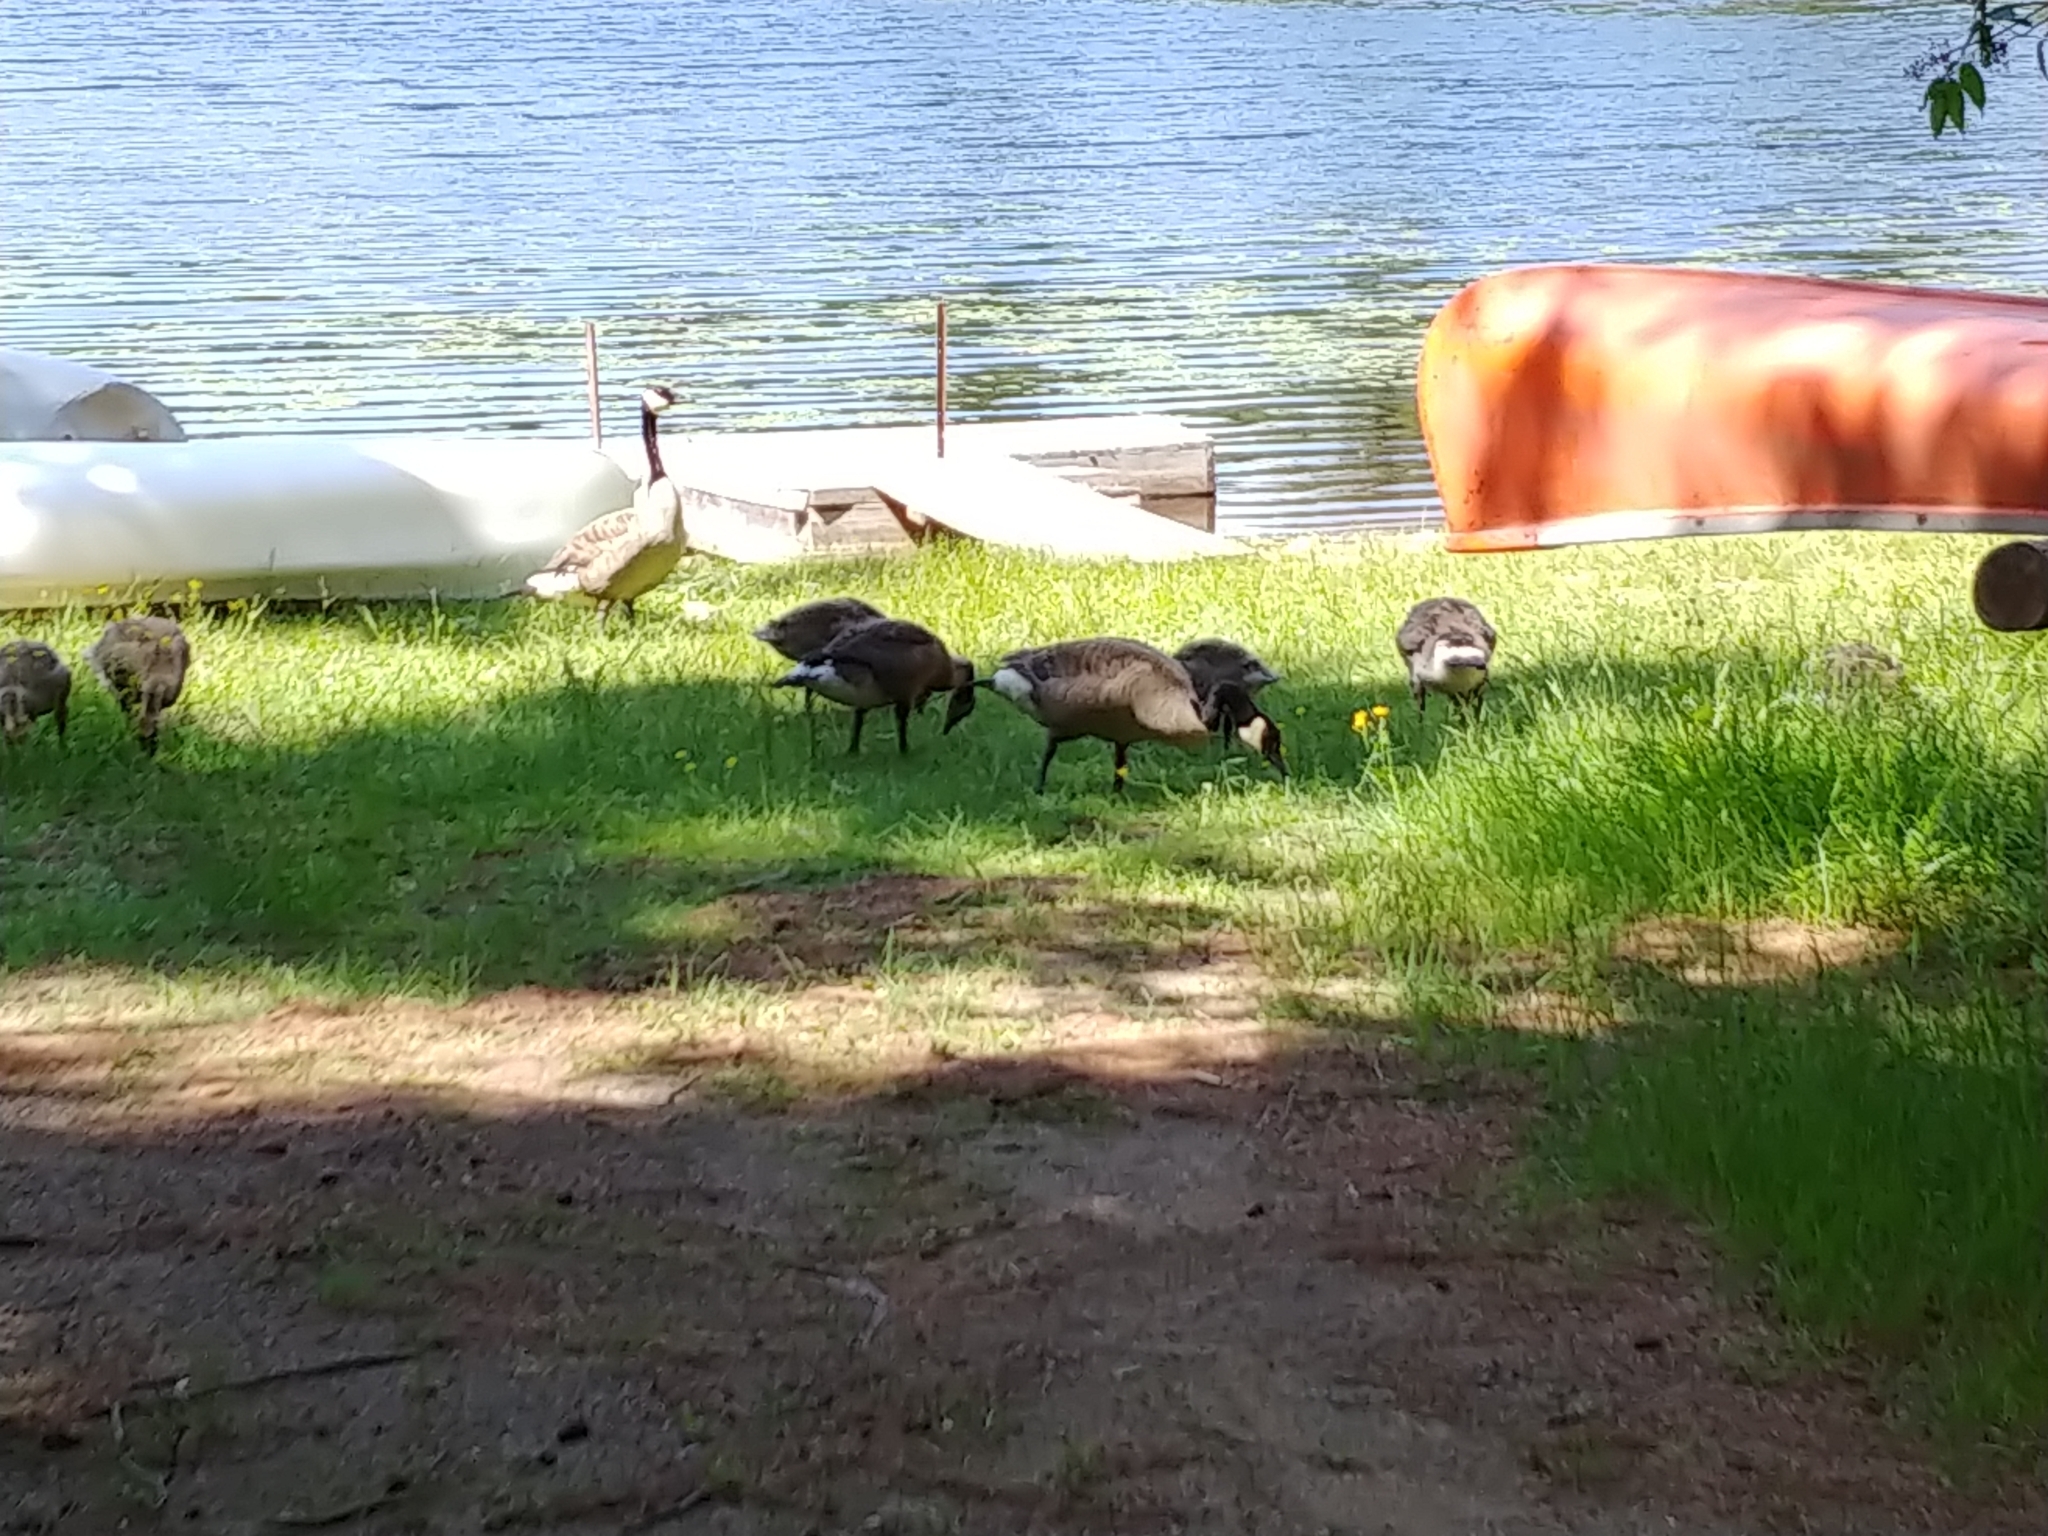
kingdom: Animalia
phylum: Chordata
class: Aves
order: Anseriformes
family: Anatidae
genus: Branta
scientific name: Branta canadensis
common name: Canada goose
